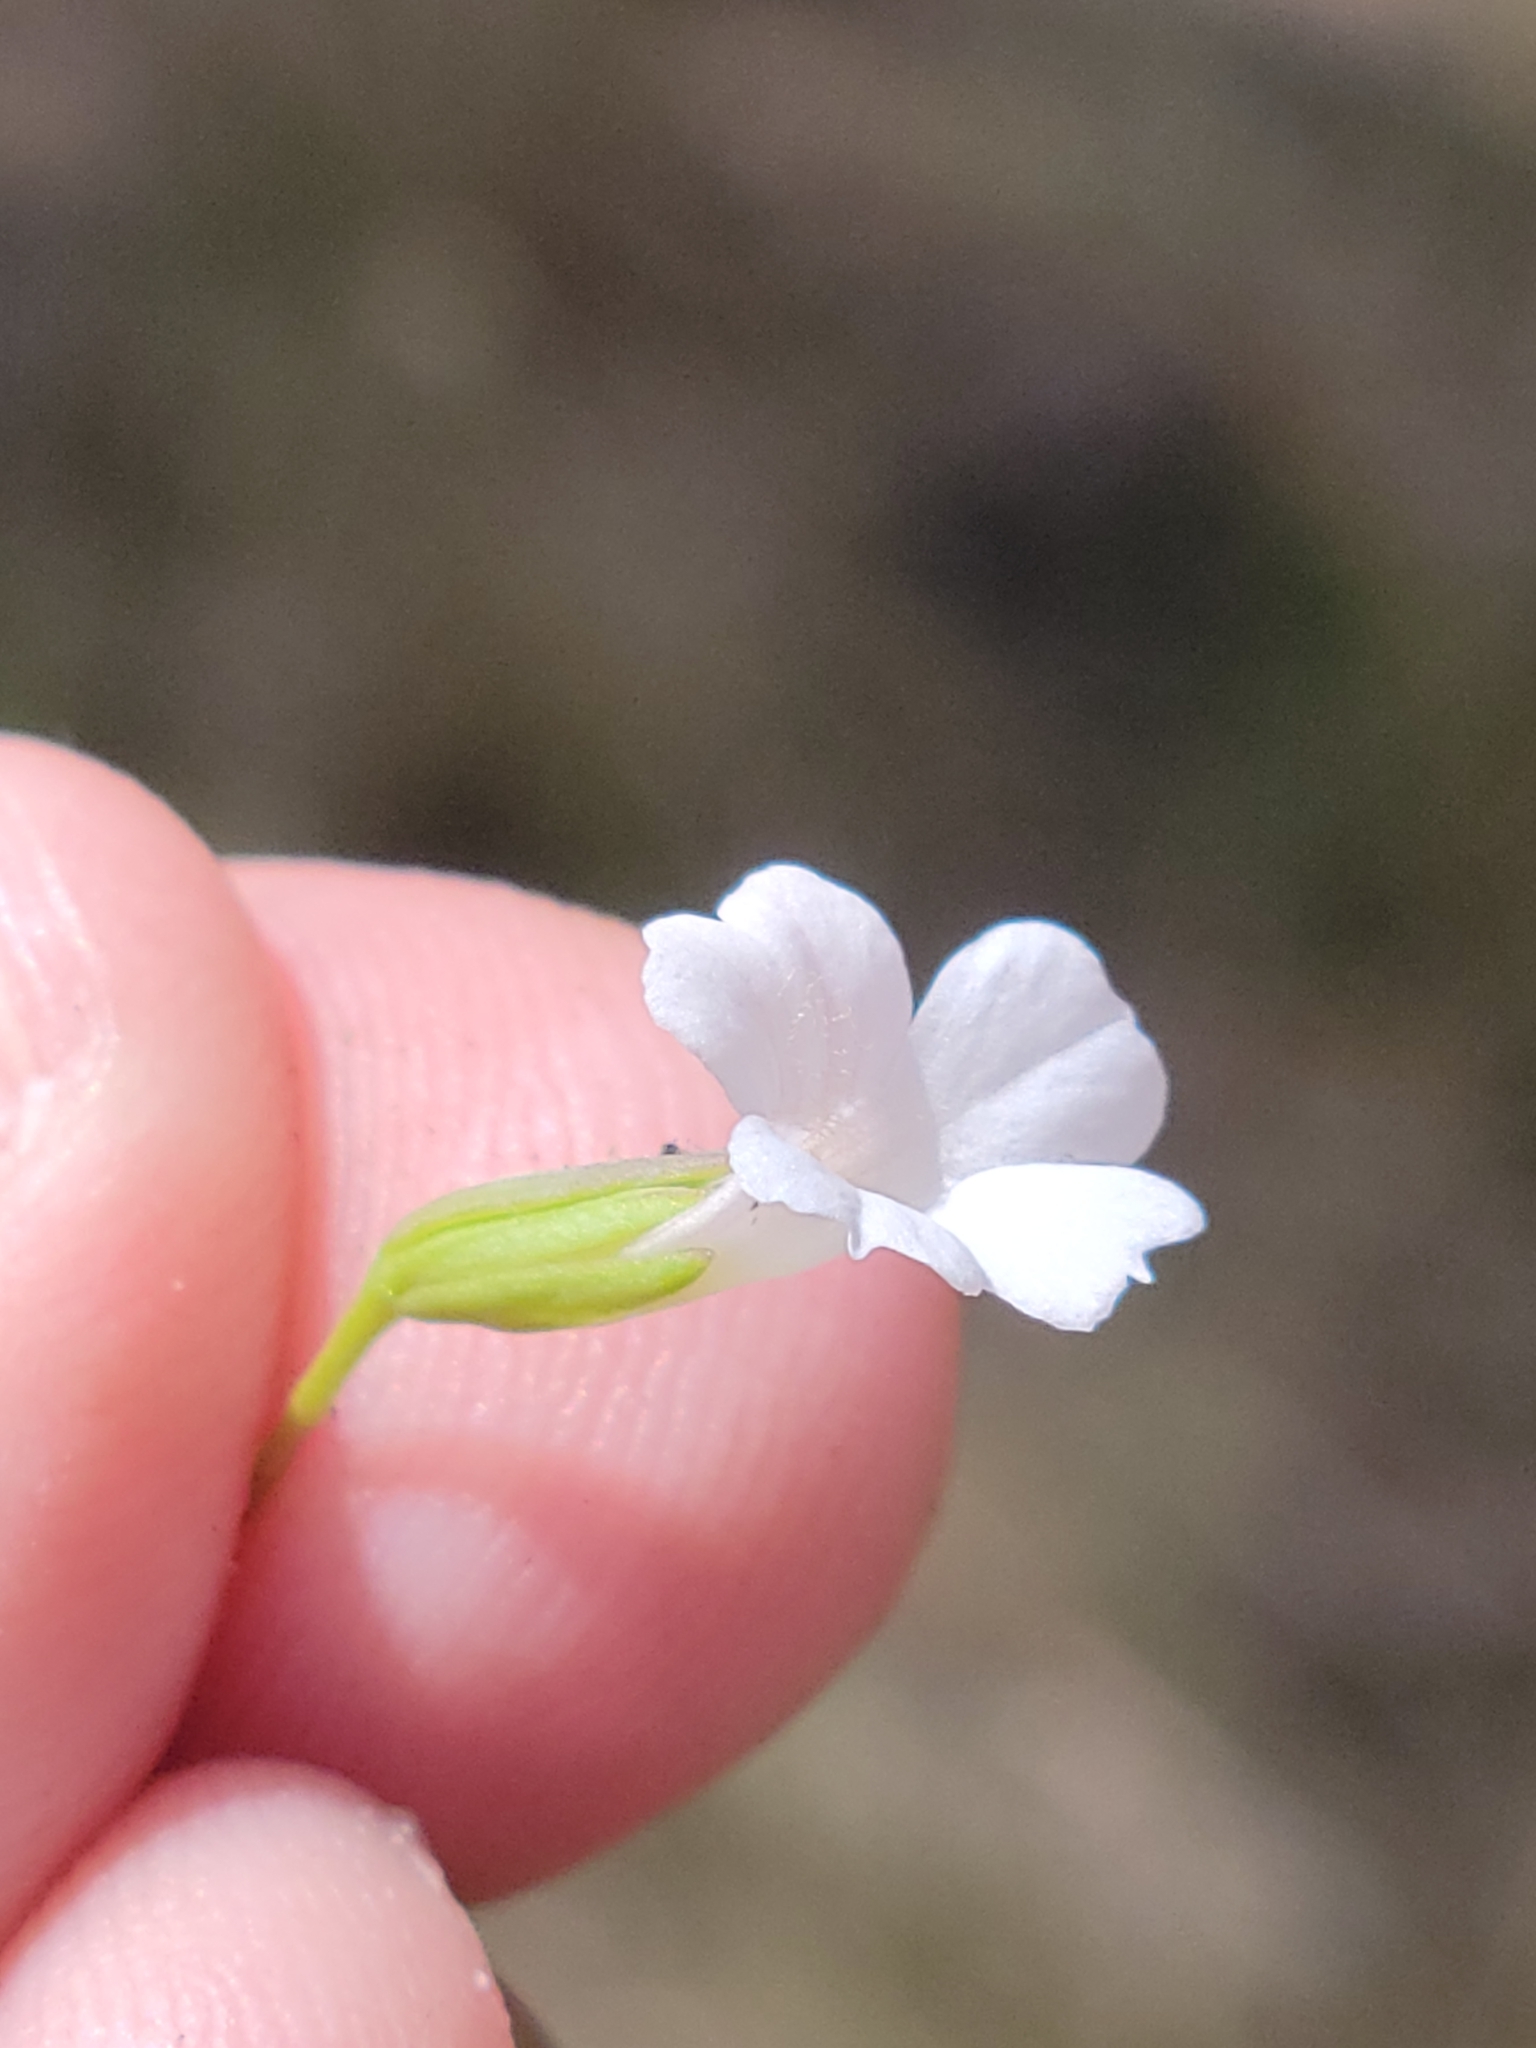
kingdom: Plantae
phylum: Tracheophyta
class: Magnoliopsida
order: Lamiales
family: Plantaginaceae
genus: Mecardonia
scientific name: Mecardonia acuminata
